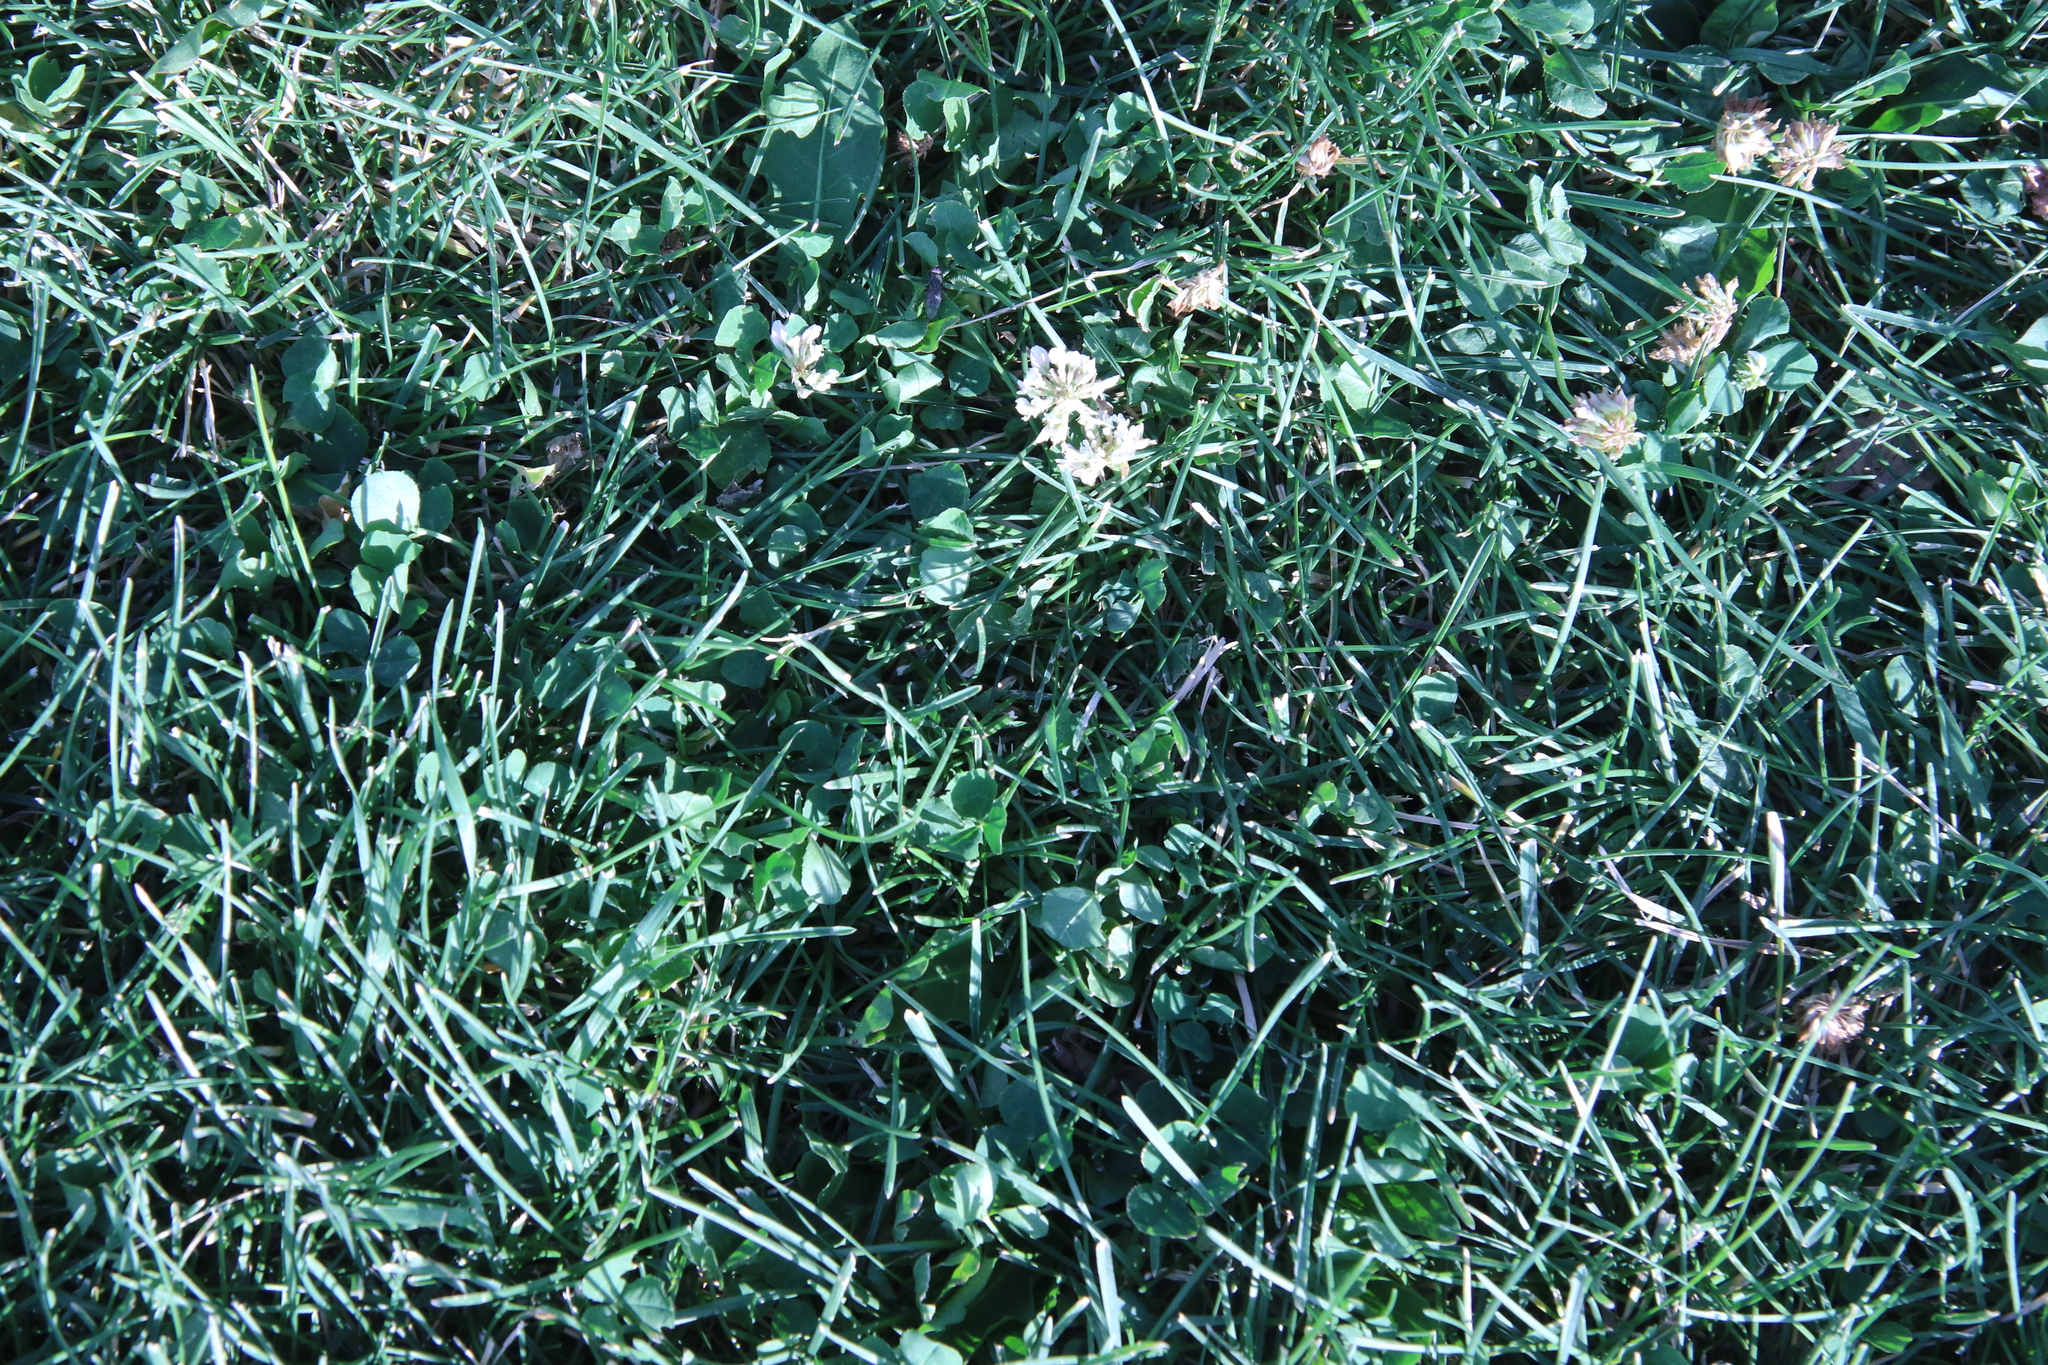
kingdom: Plantae
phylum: Tracheophyta
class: Magnoliopsida
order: Fabales
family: Fabaceae
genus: Trifolium
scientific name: Trifolium repens
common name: White clover
